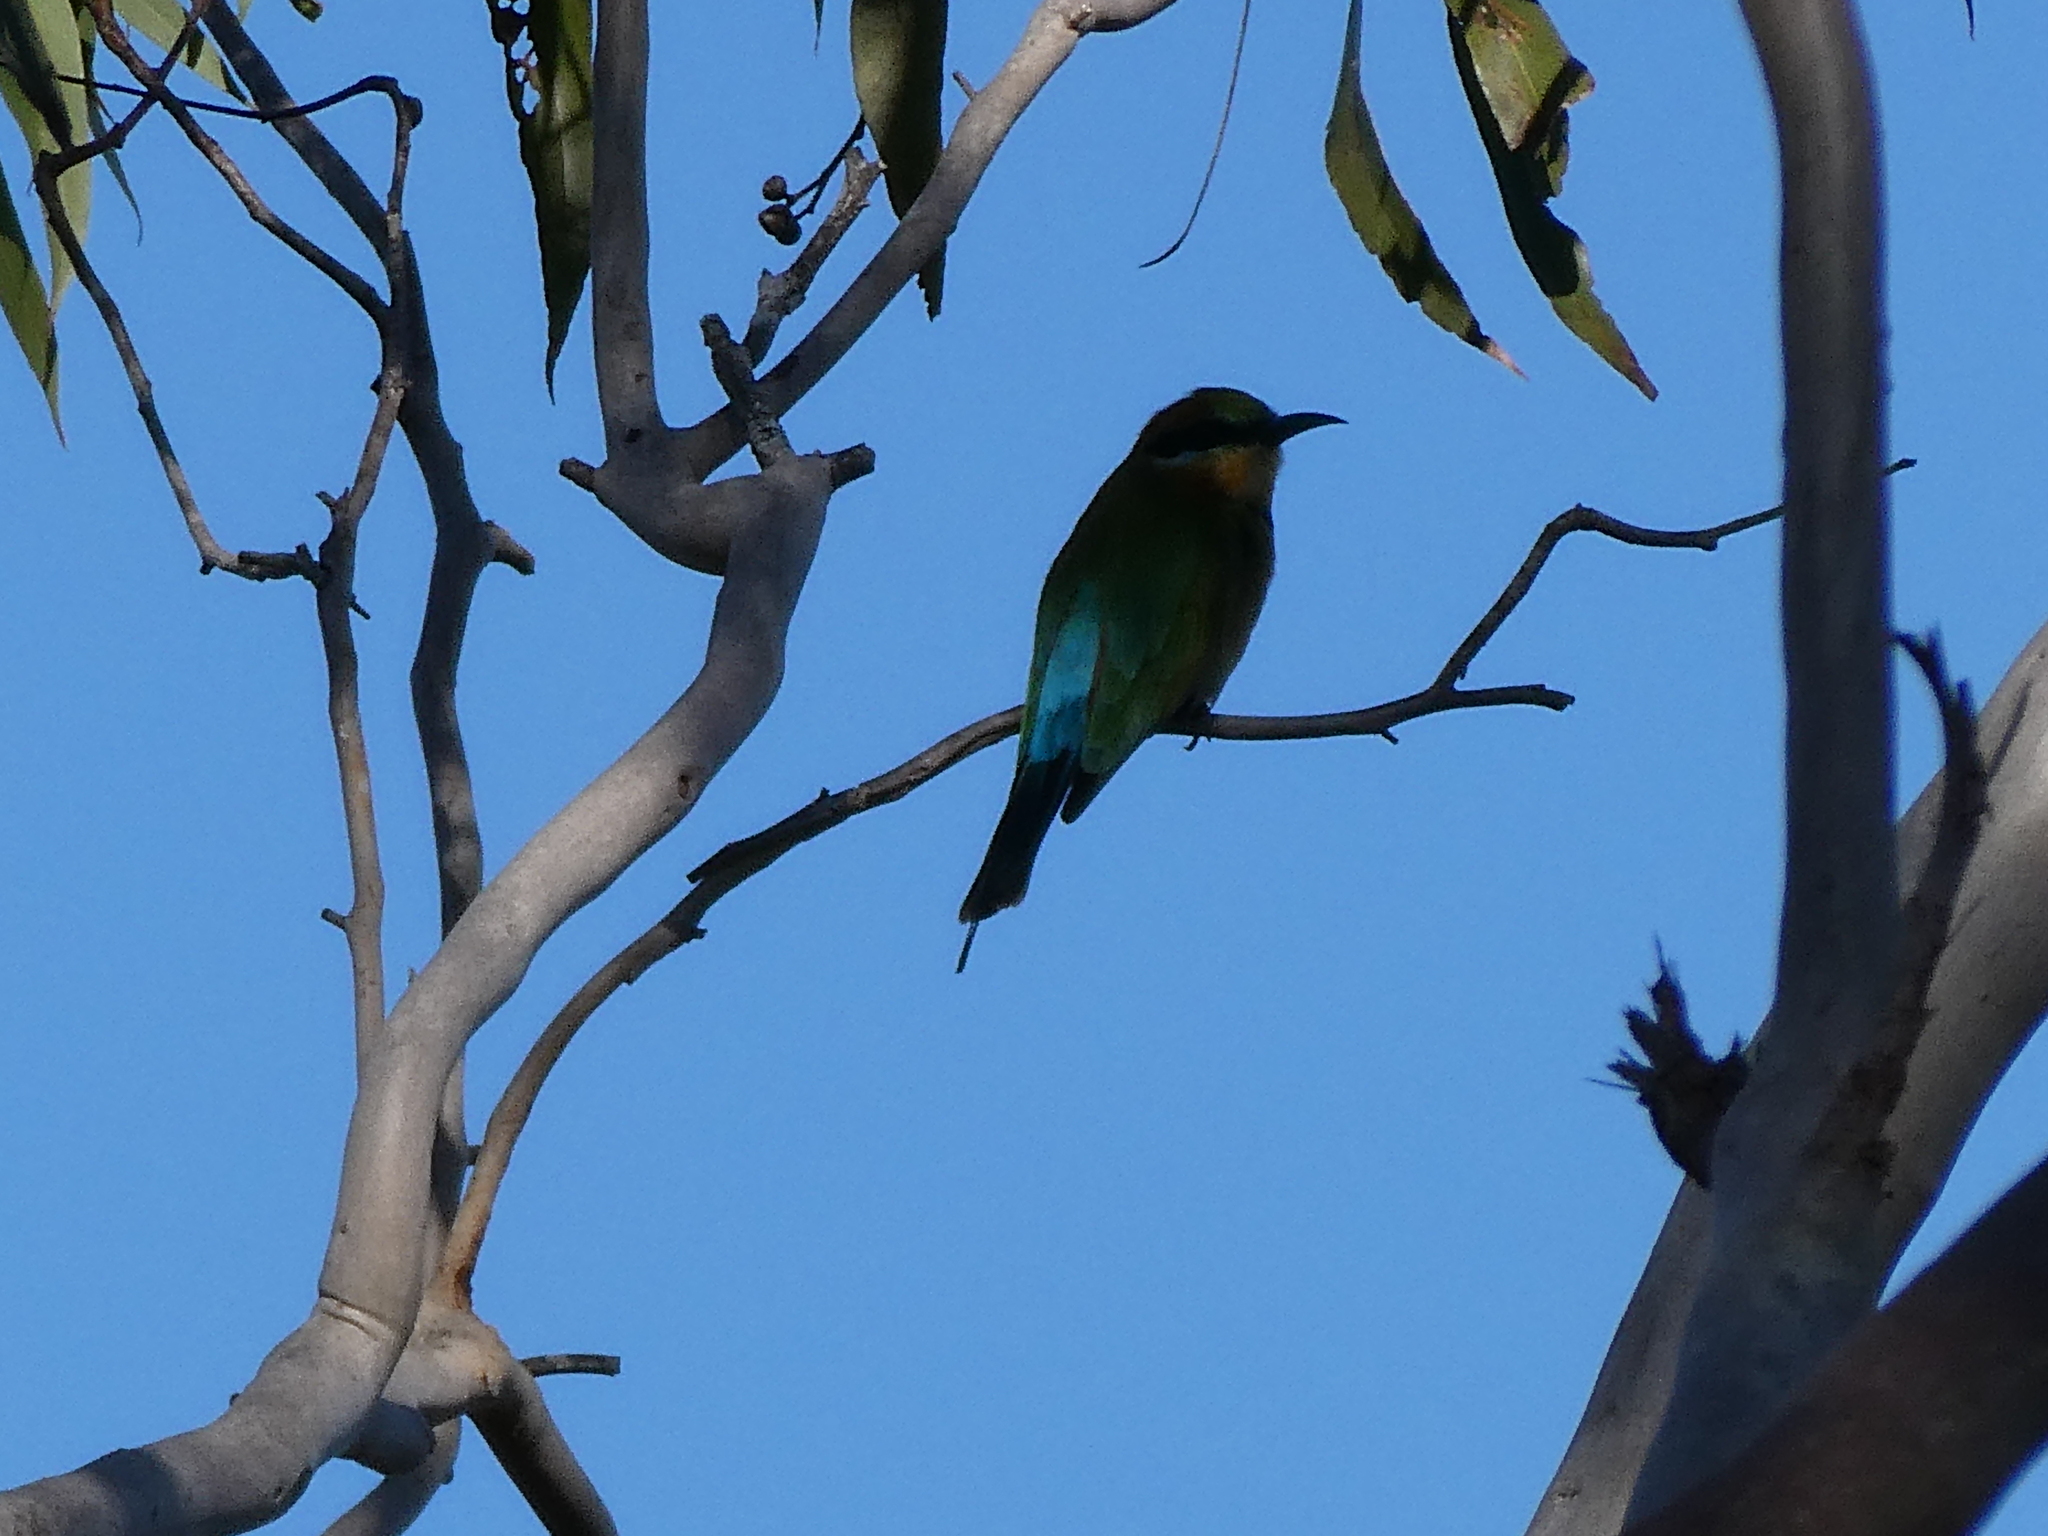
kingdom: Animalia
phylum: Chordata
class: Aves
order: Coraciiformes
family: Meropidae
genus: Merops
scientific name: Merops ornatus
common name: Rainbow bee-eater
